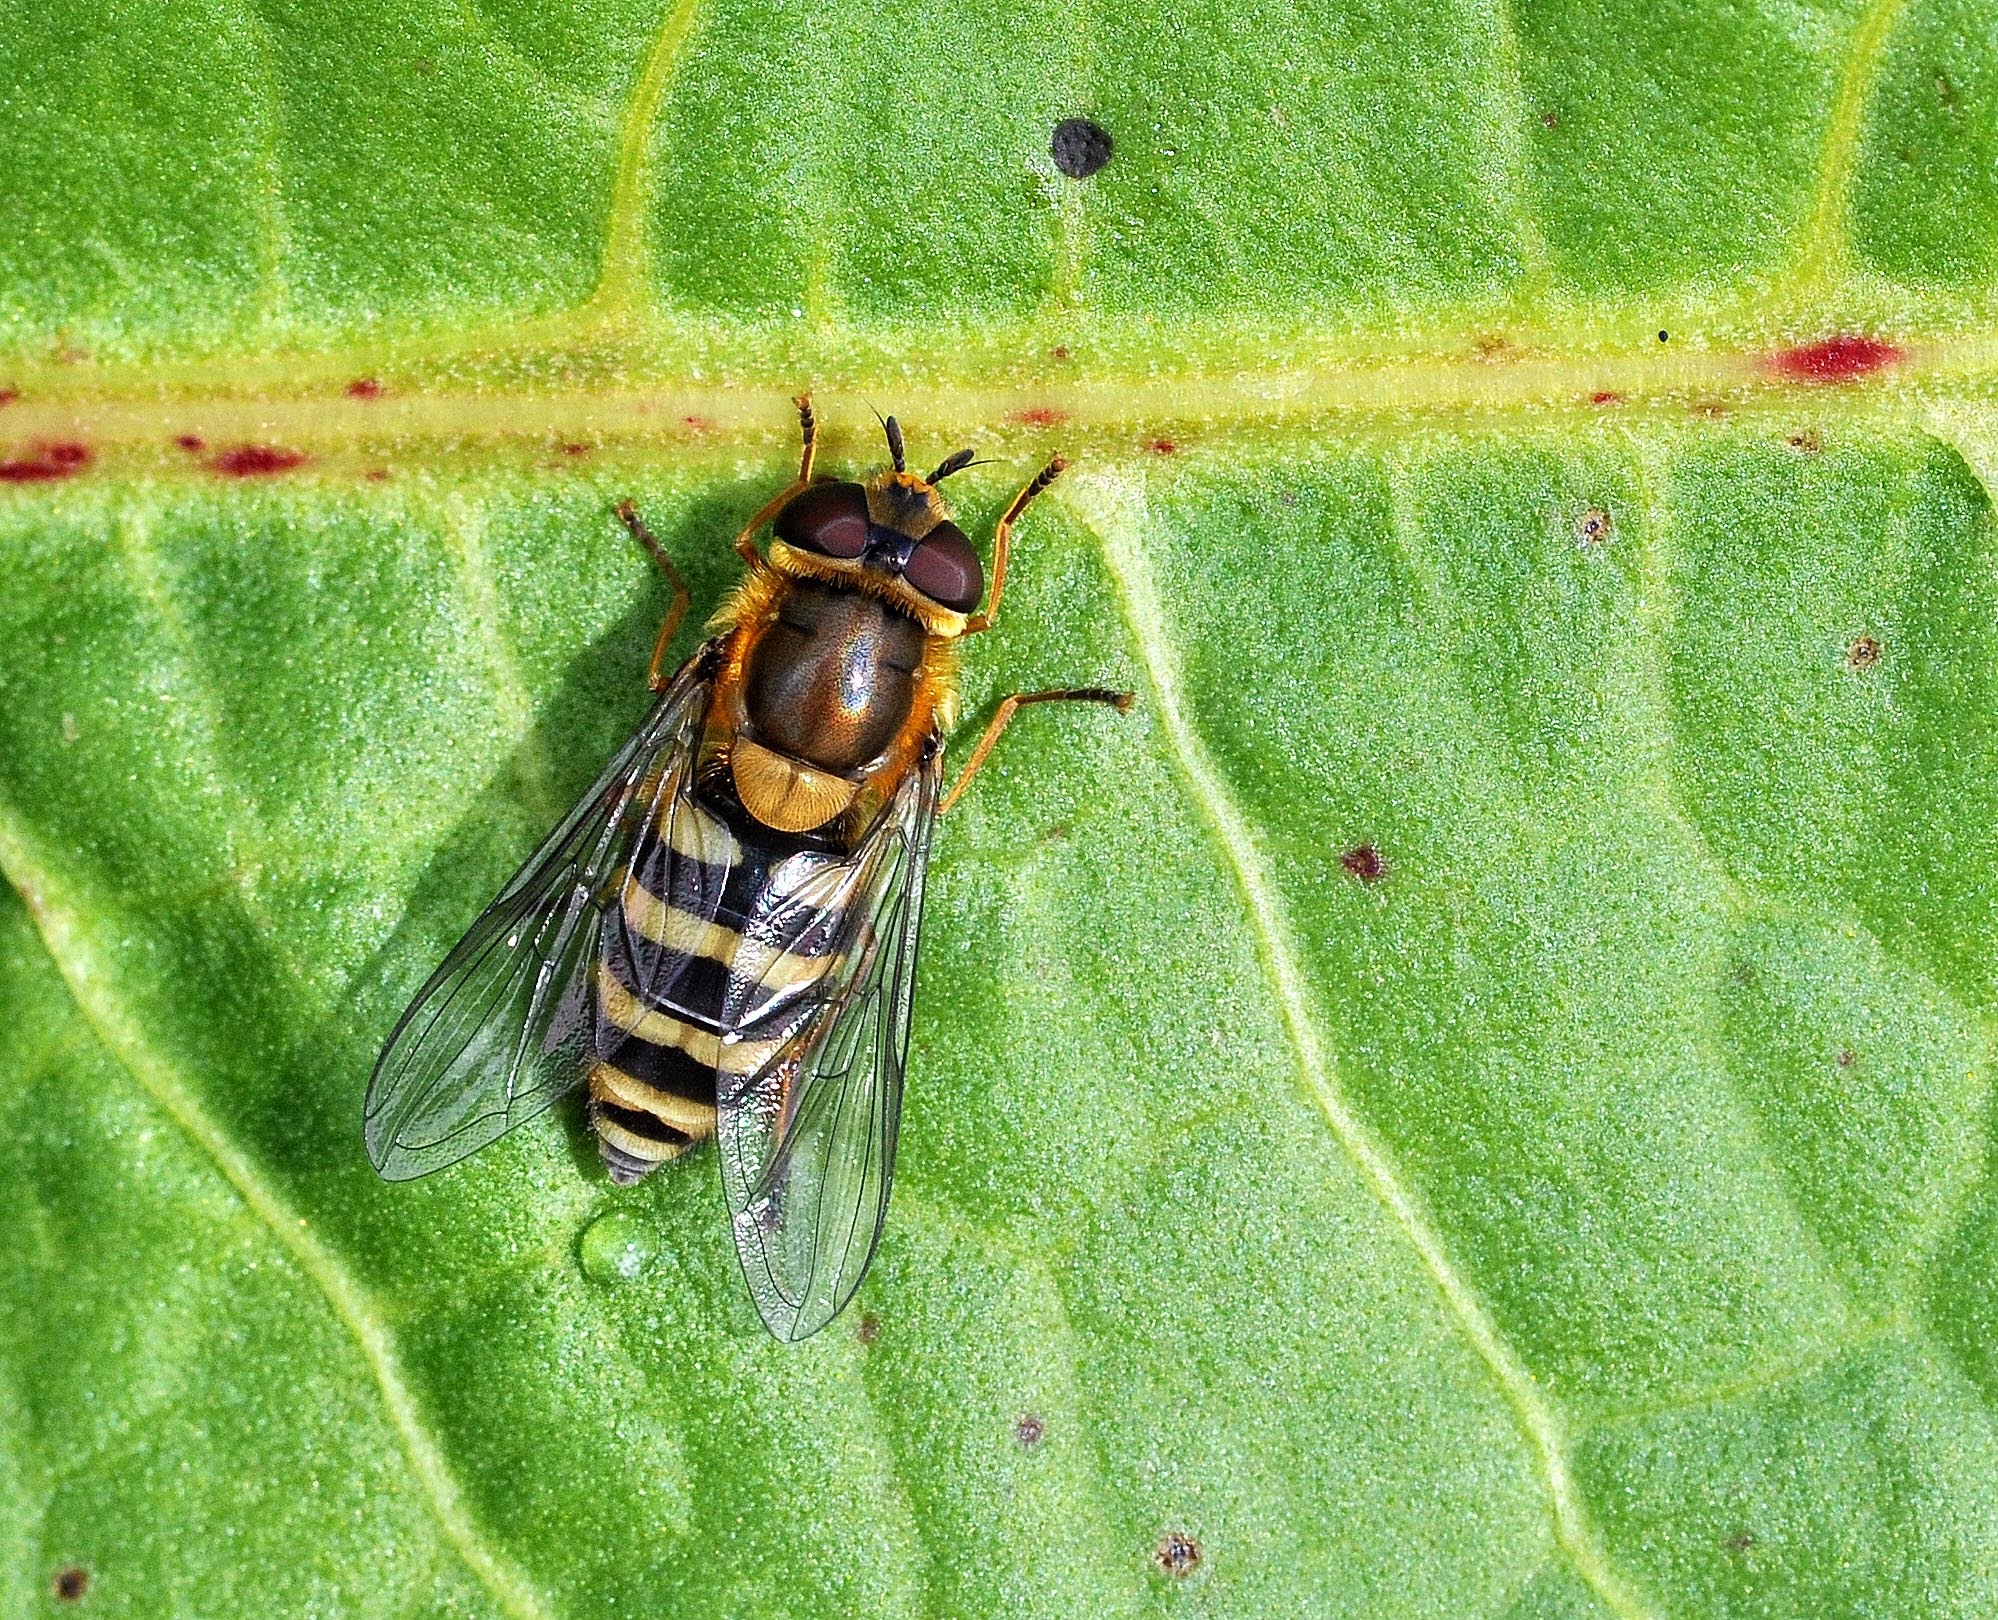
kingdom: Animalia
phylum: Arthropoda
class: Insecta
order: Diptera
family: Syrphidae
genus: Syrphus
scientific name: Syrphus
